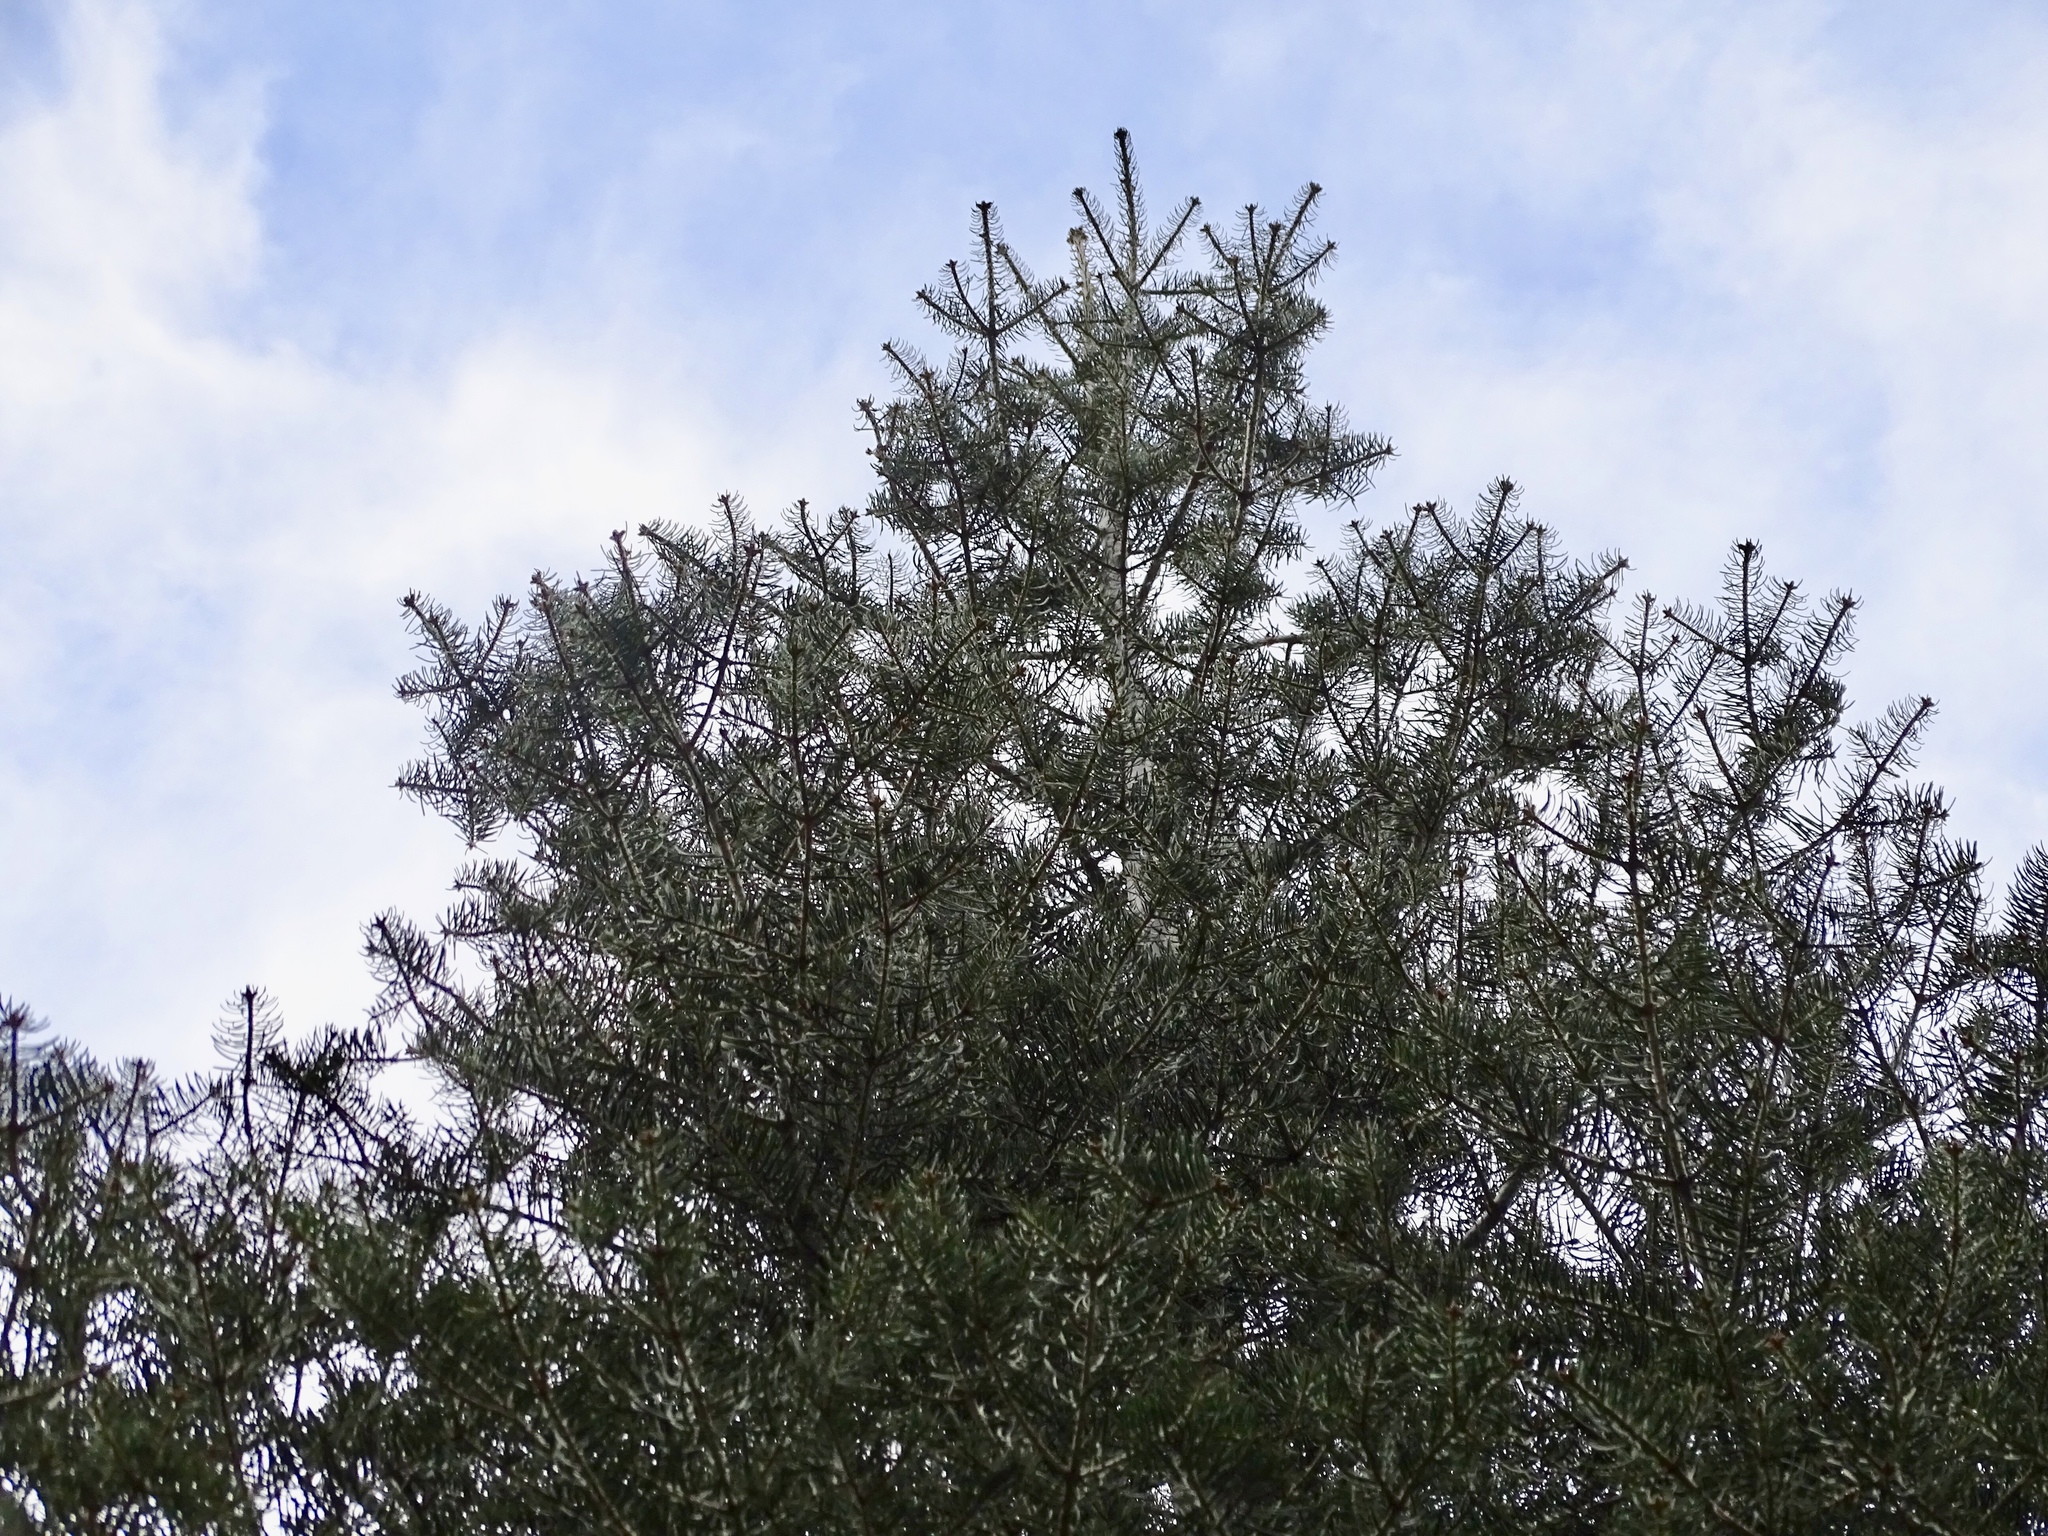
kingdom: Plantae
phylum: Tracheophyta
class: Pinopsida
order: Pinales
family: Pinaceae
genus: Abies
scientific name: Abies concolor
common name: Colorado fir
